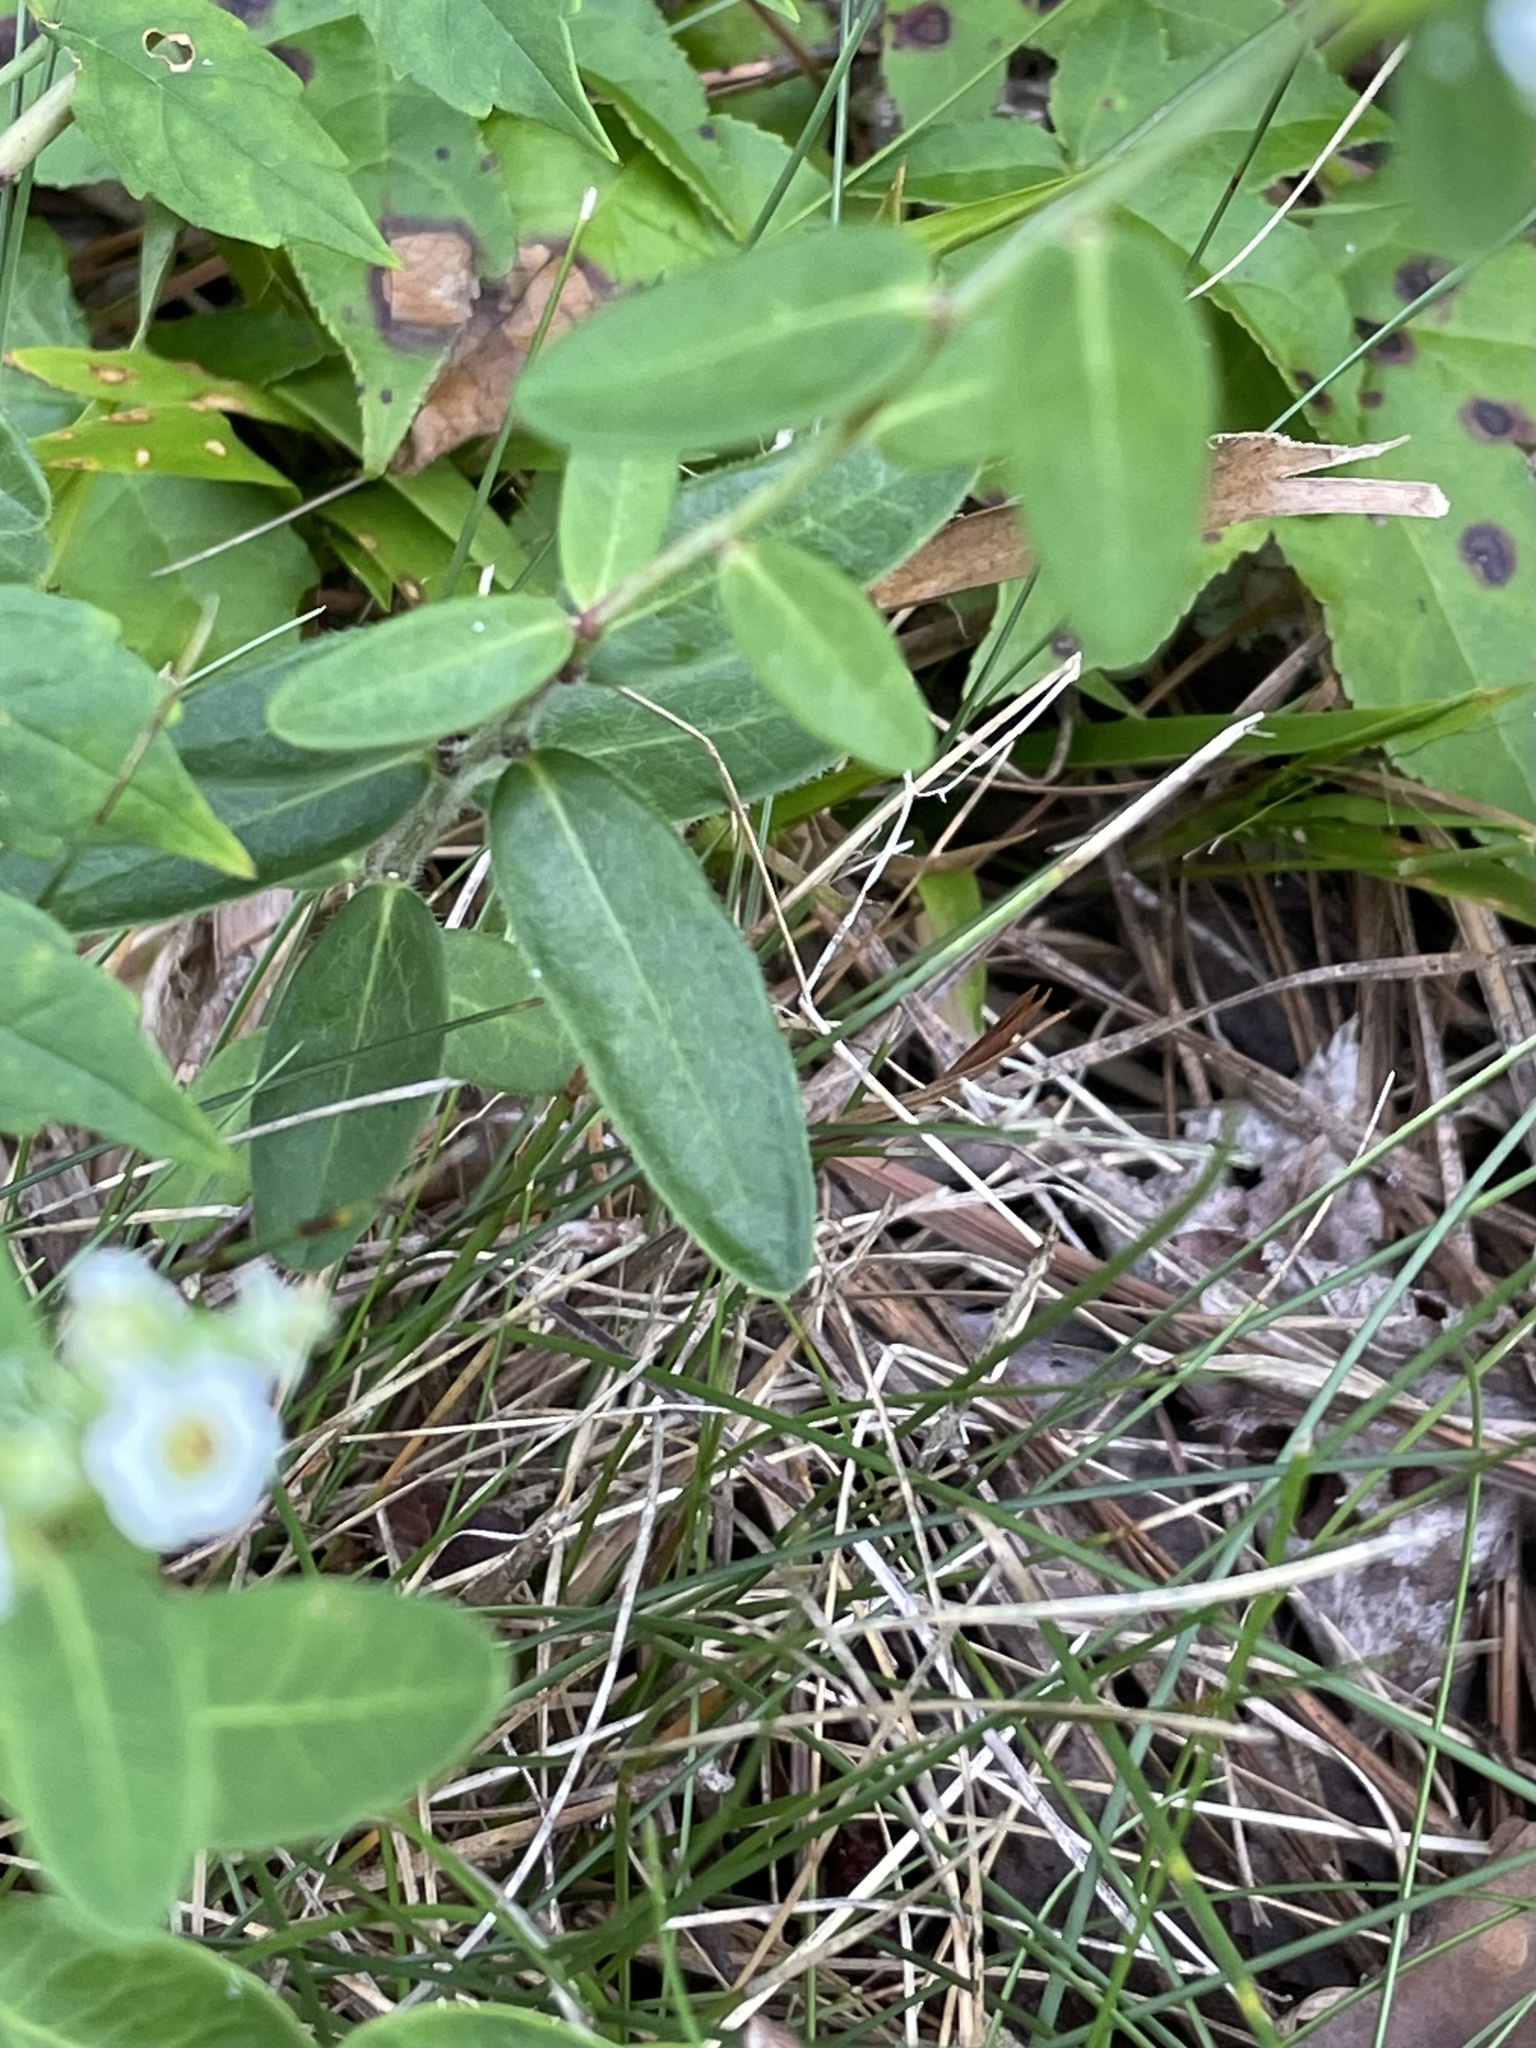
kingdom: Plantae
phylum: Tracheophyta
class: Magnoliopsida
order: Malpighiales
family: Euphorbiaceae
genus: Euphorbia
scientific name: Euphorbia corollata
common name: Flowering spurge
